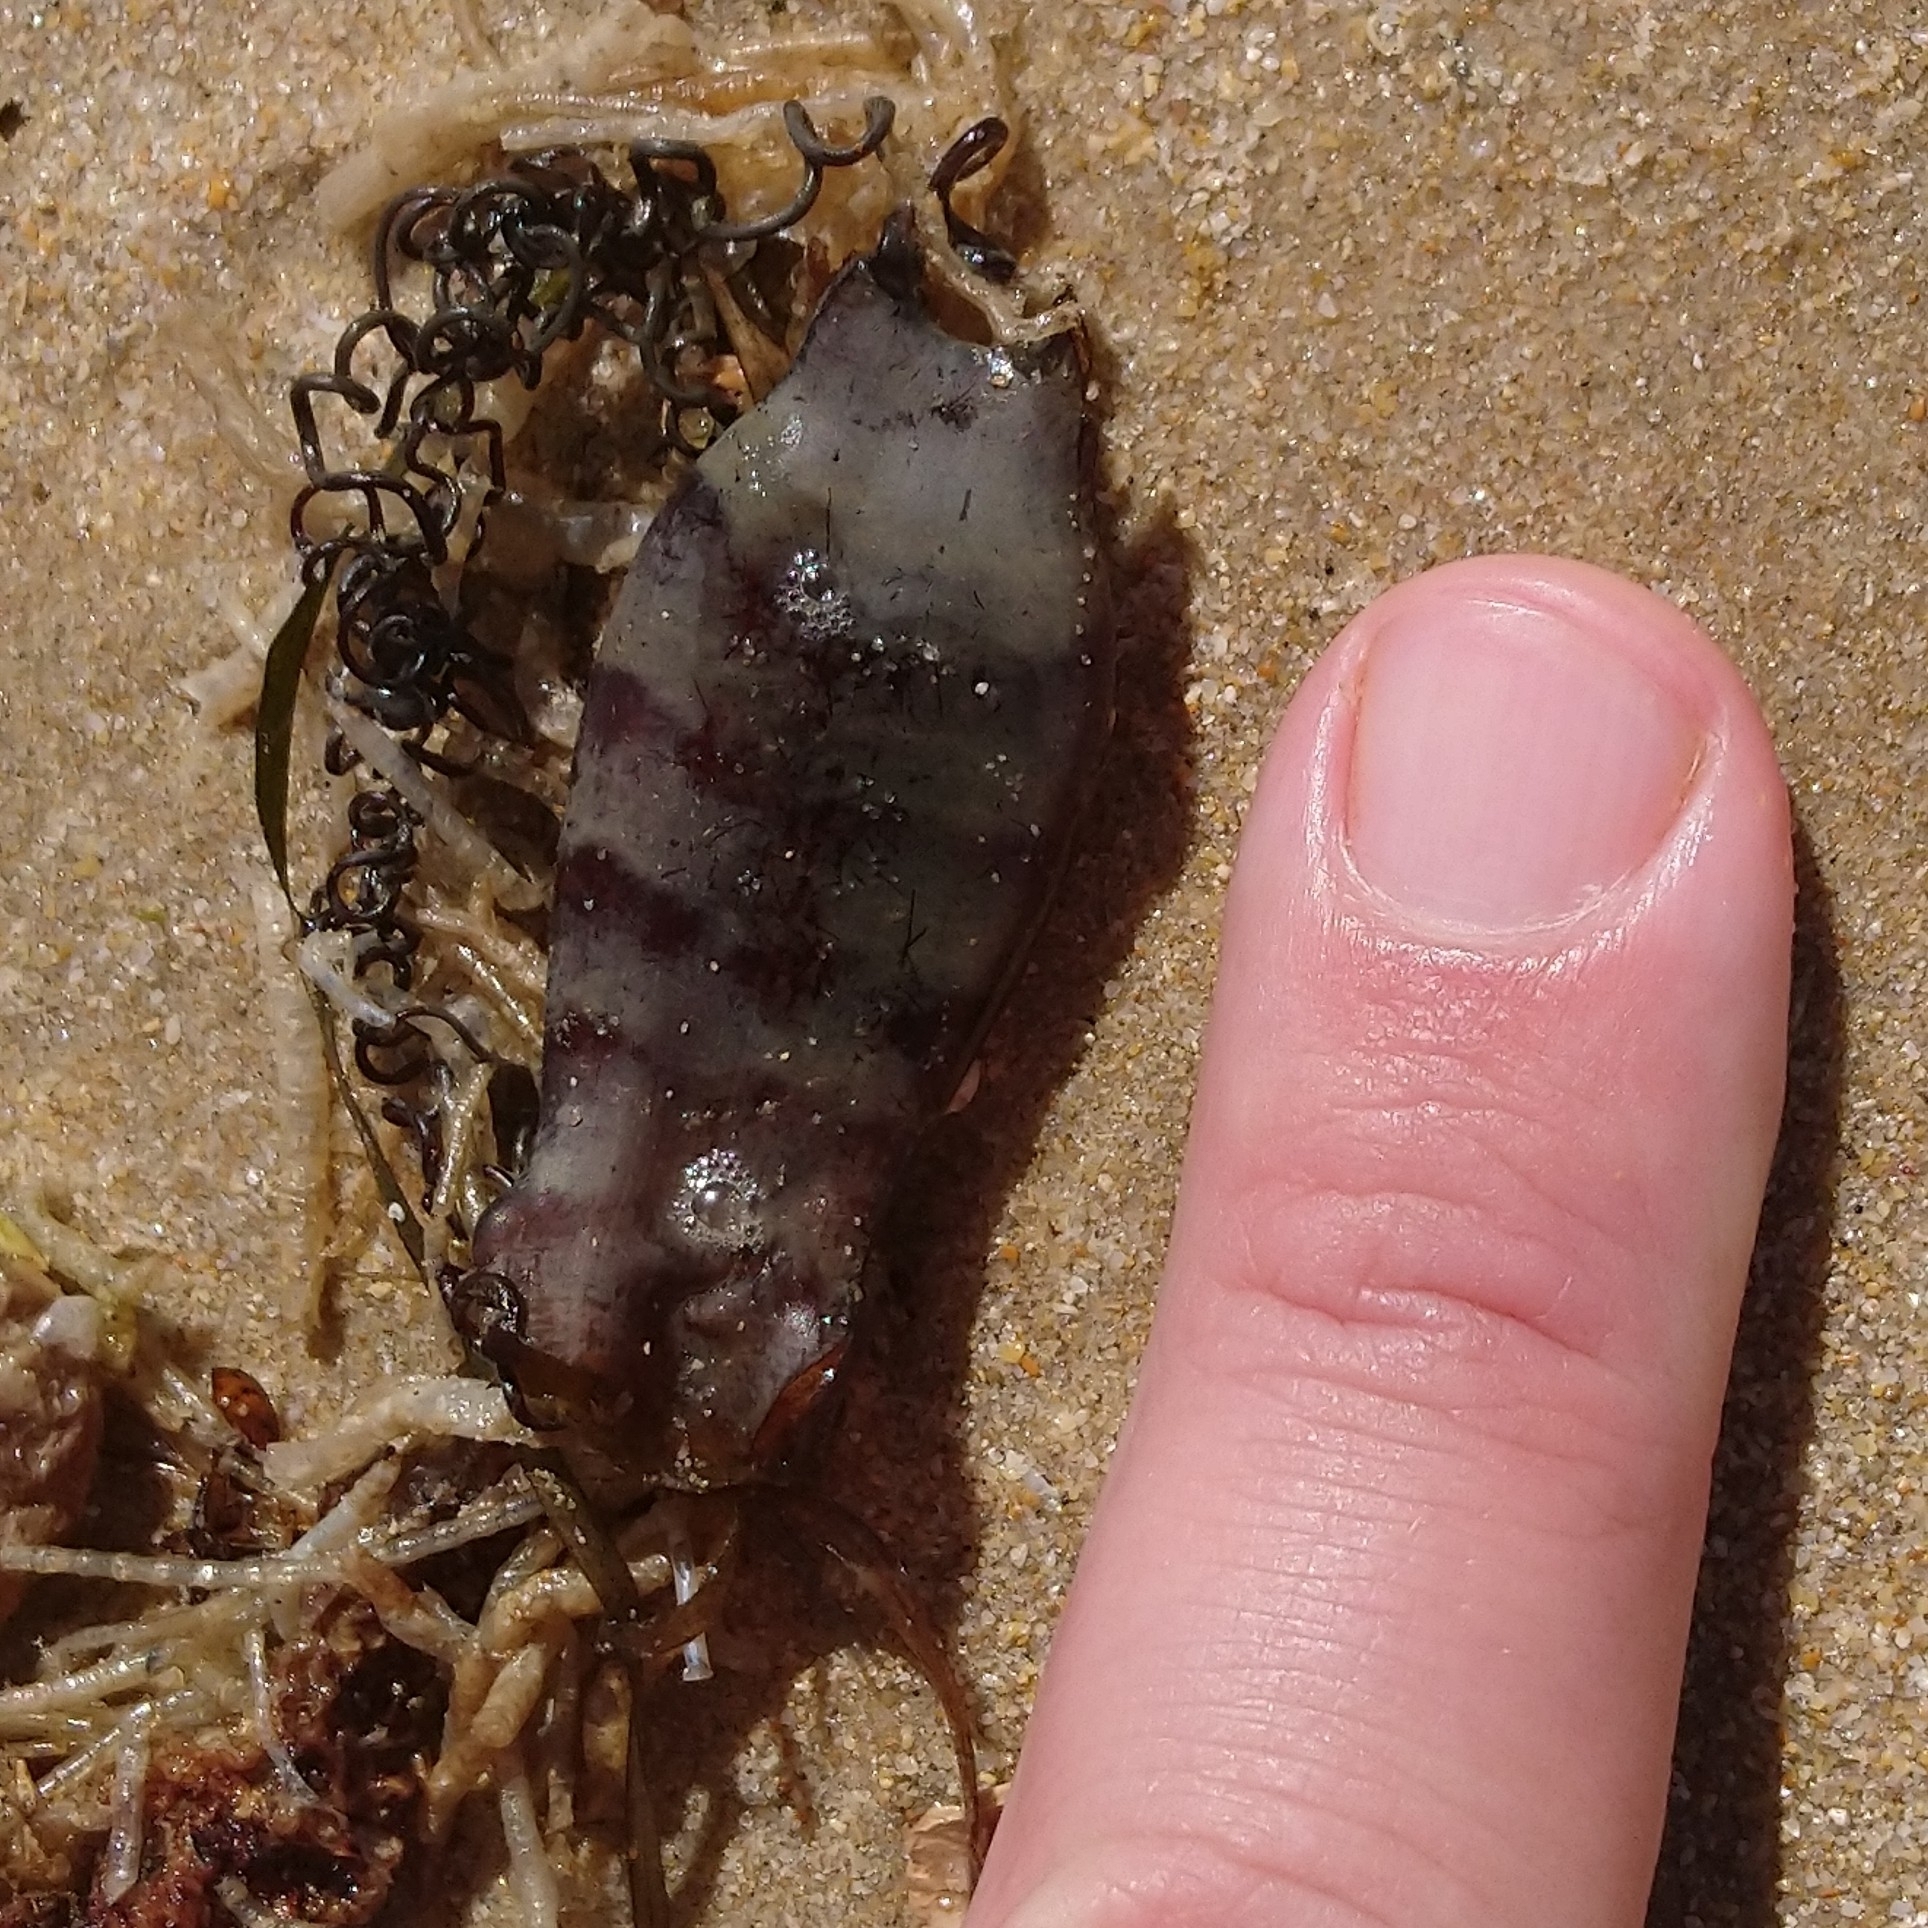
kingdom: Animalia
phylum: Chordata
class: Elasmobranchii
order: Carcharhiniformes
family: Scyliorhinidae
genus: Haploblepharus
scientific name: Haploblepharus edwardsii
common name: Puffadder shyshark
